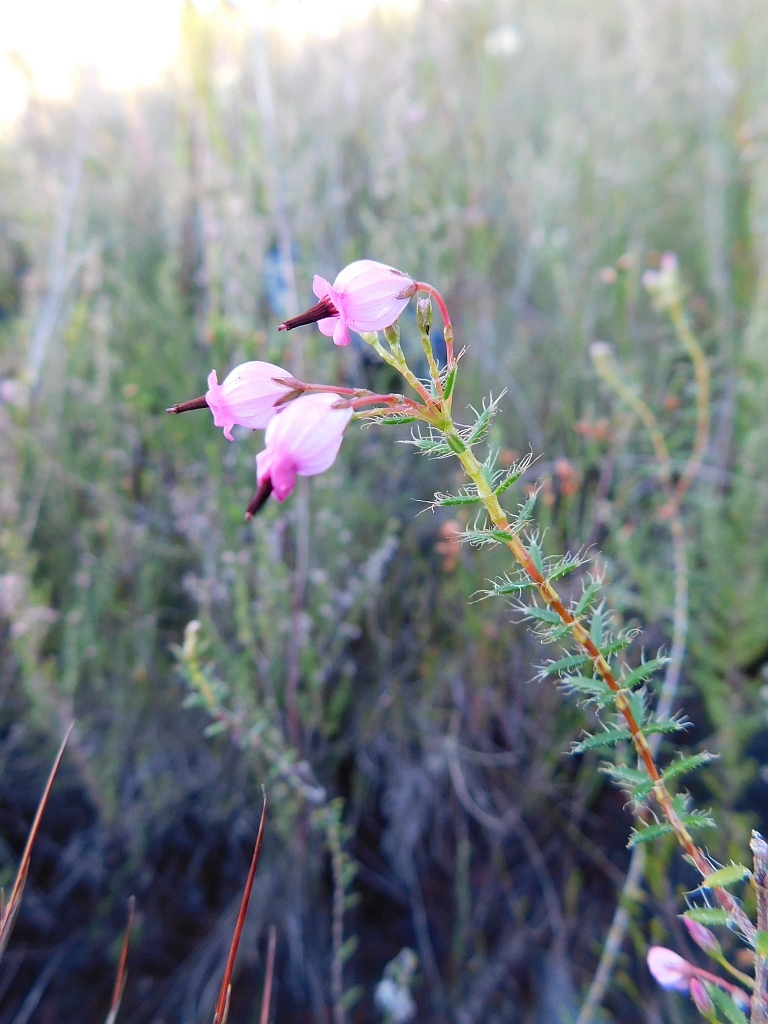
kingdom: Plantae
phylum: Tracheophyta
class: Magnoliopsida
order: Ericales
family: Ericaceae
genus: Erica
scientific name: Erica embothriifolia
